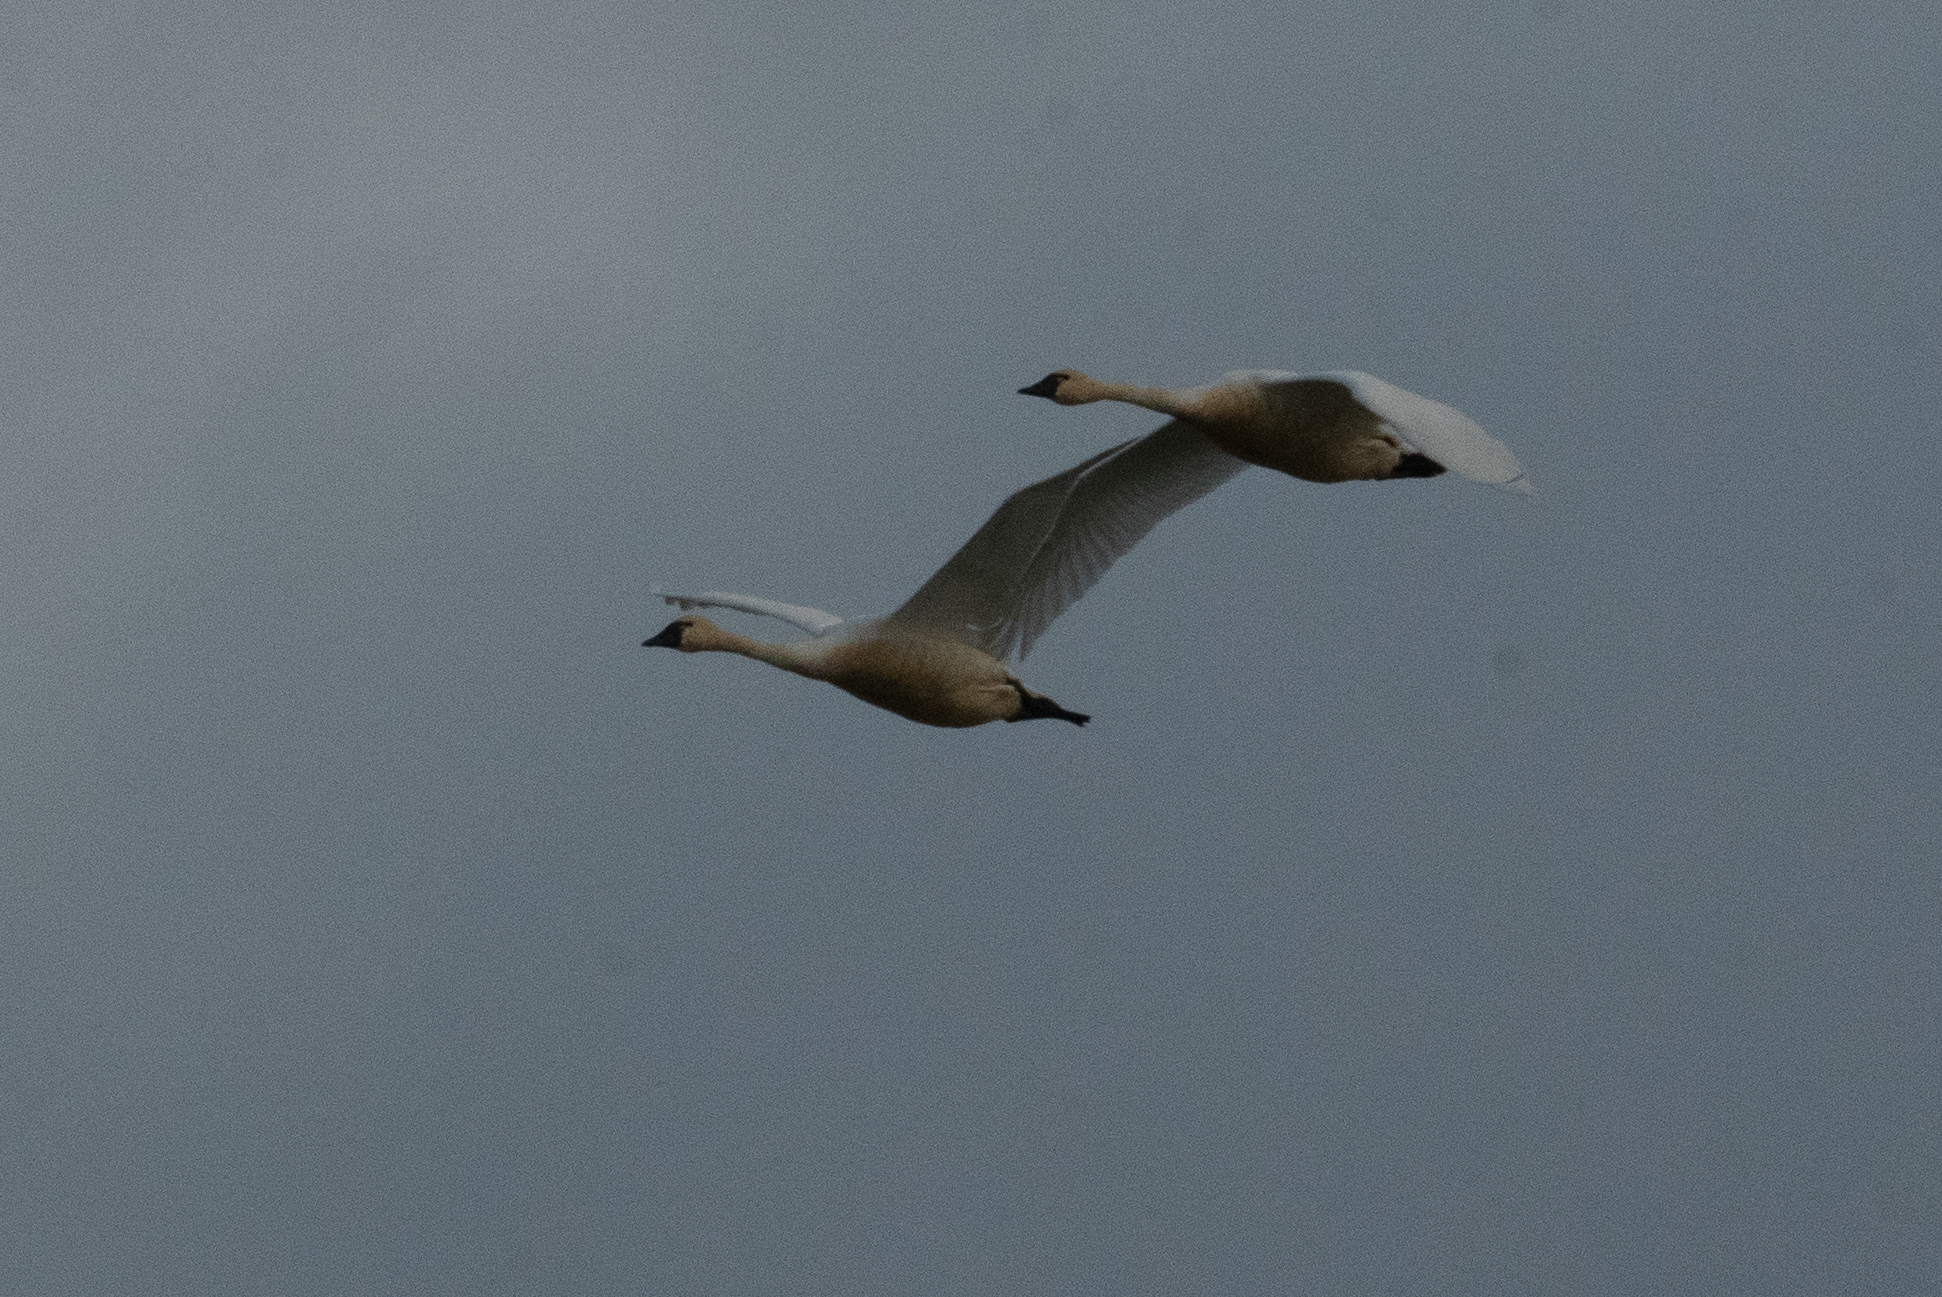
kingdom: Animalia
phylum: Chordata
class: Aves
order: Anseriformes
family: Anatidae
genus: Cygnus
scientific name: Cygnus columbianus
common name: Tundra swan
